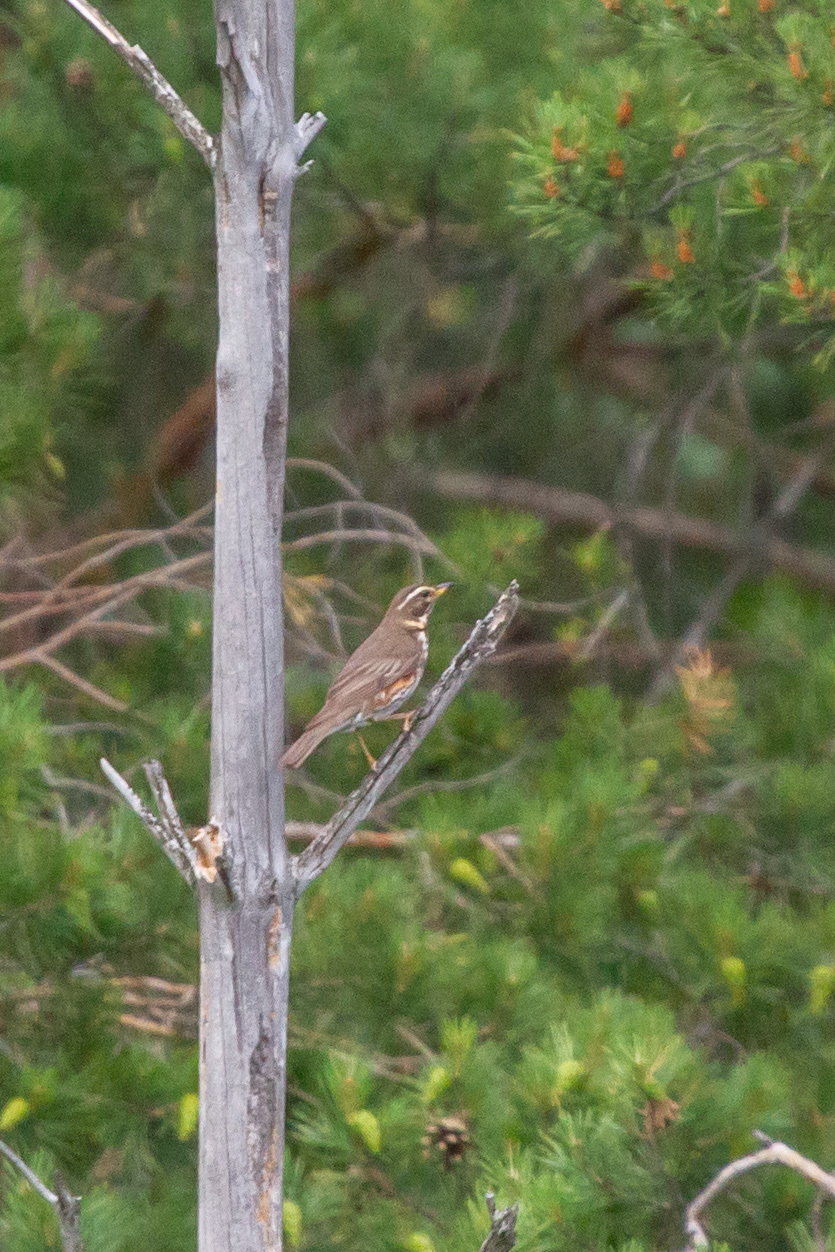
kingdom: Animalia
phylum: Chordata
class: Aves
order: Passeriformes
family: Turdidae
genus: Turdus
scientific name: Turdus iliacus
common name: Redwing
